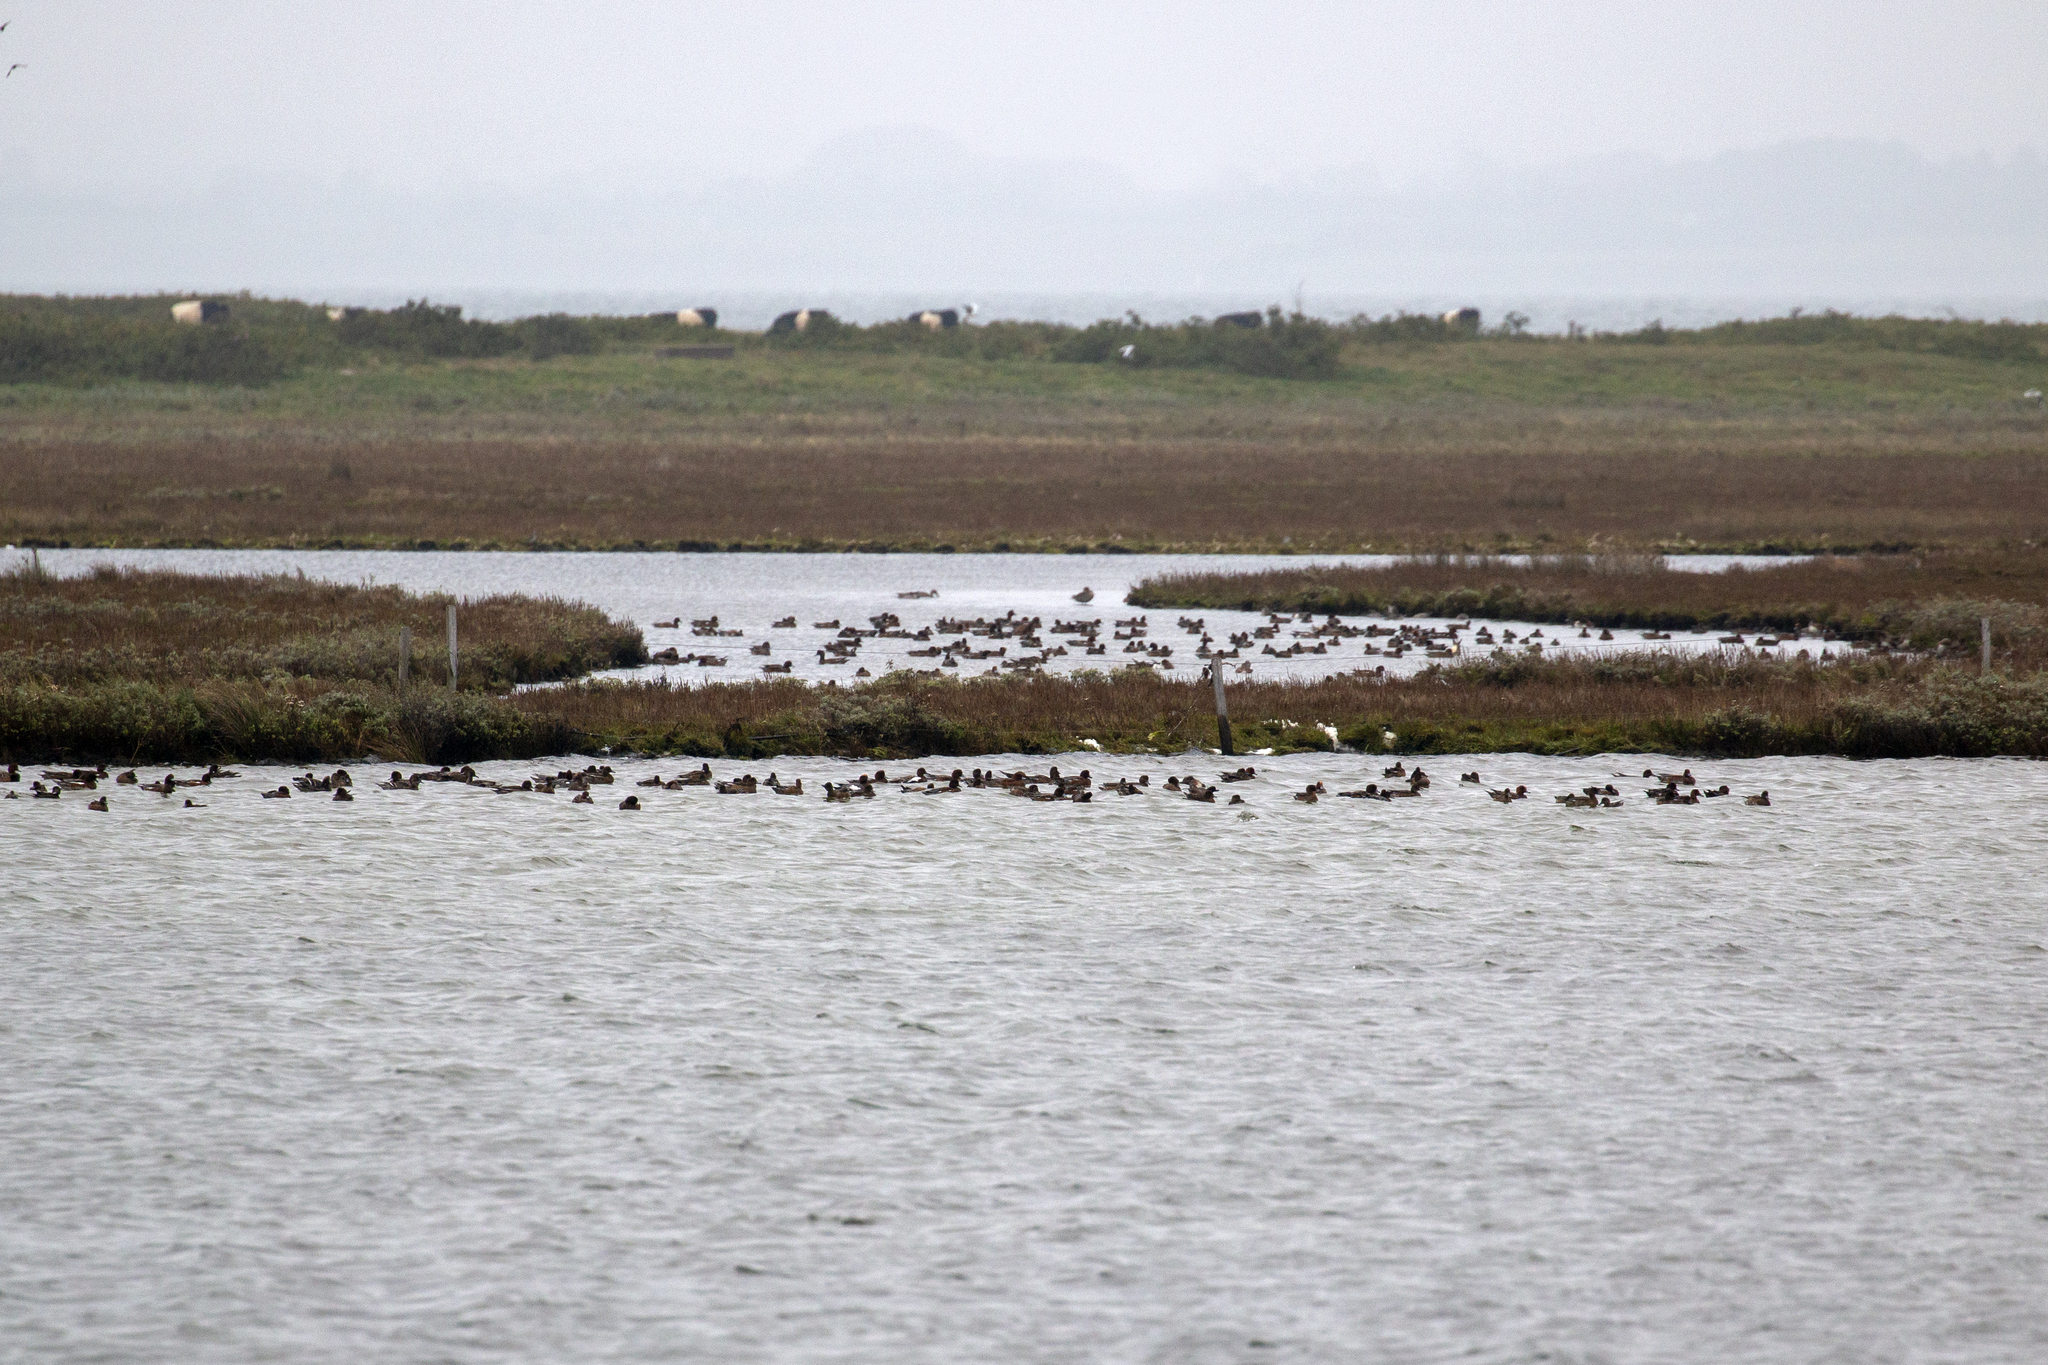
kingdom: Animalia
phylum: Chordata
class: Aves
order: Anseriformes
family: Anatidae
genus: Mareca
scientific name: Mareca penelope
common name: Eurasian wigeon
